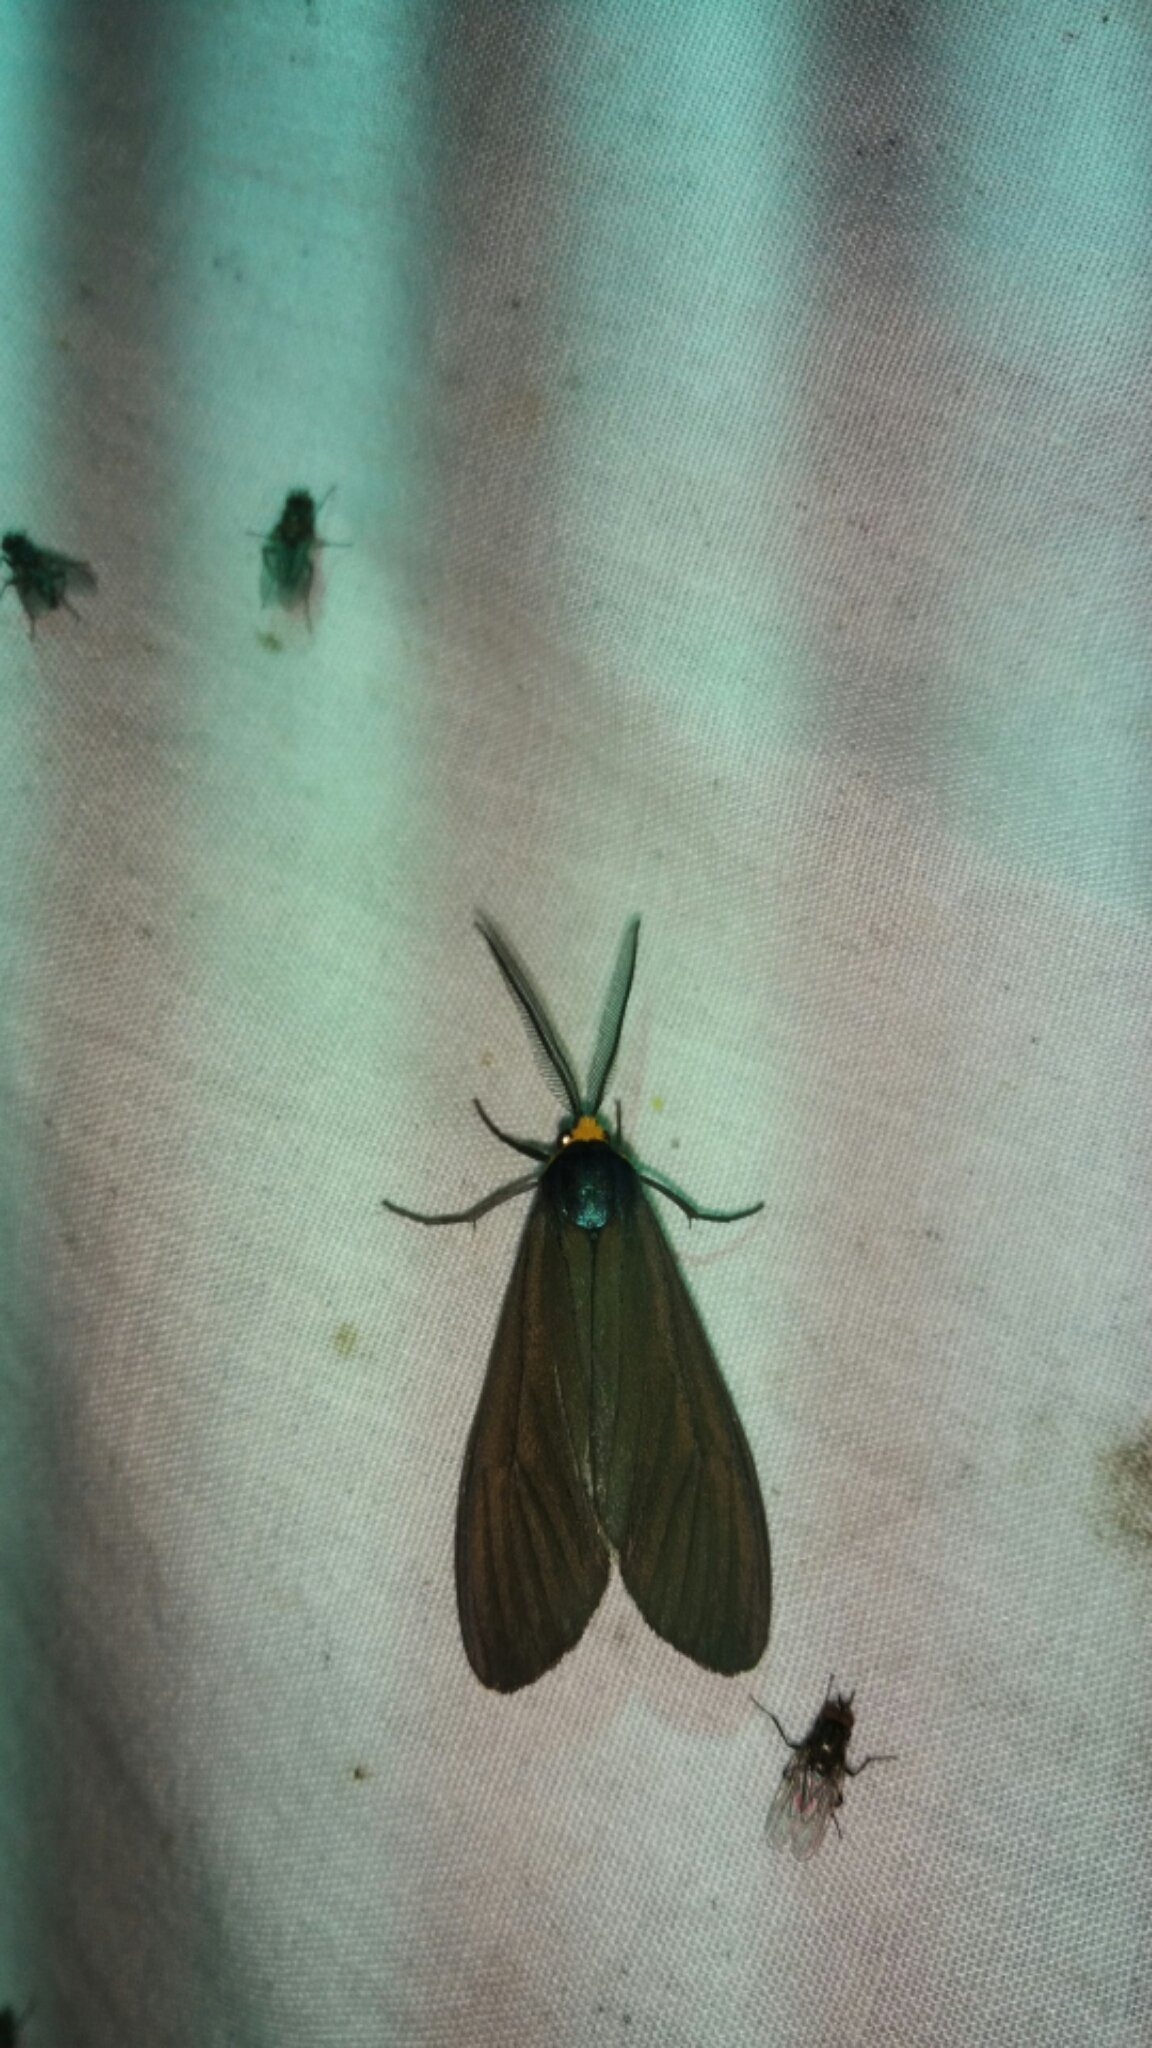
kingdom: Animalia
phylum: Arthropoda
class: Insecta
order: Lepidoptera
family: Erebidae
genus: Ctenucha
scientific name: Ctenucha virginica
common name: Virginia ctenucha moth
